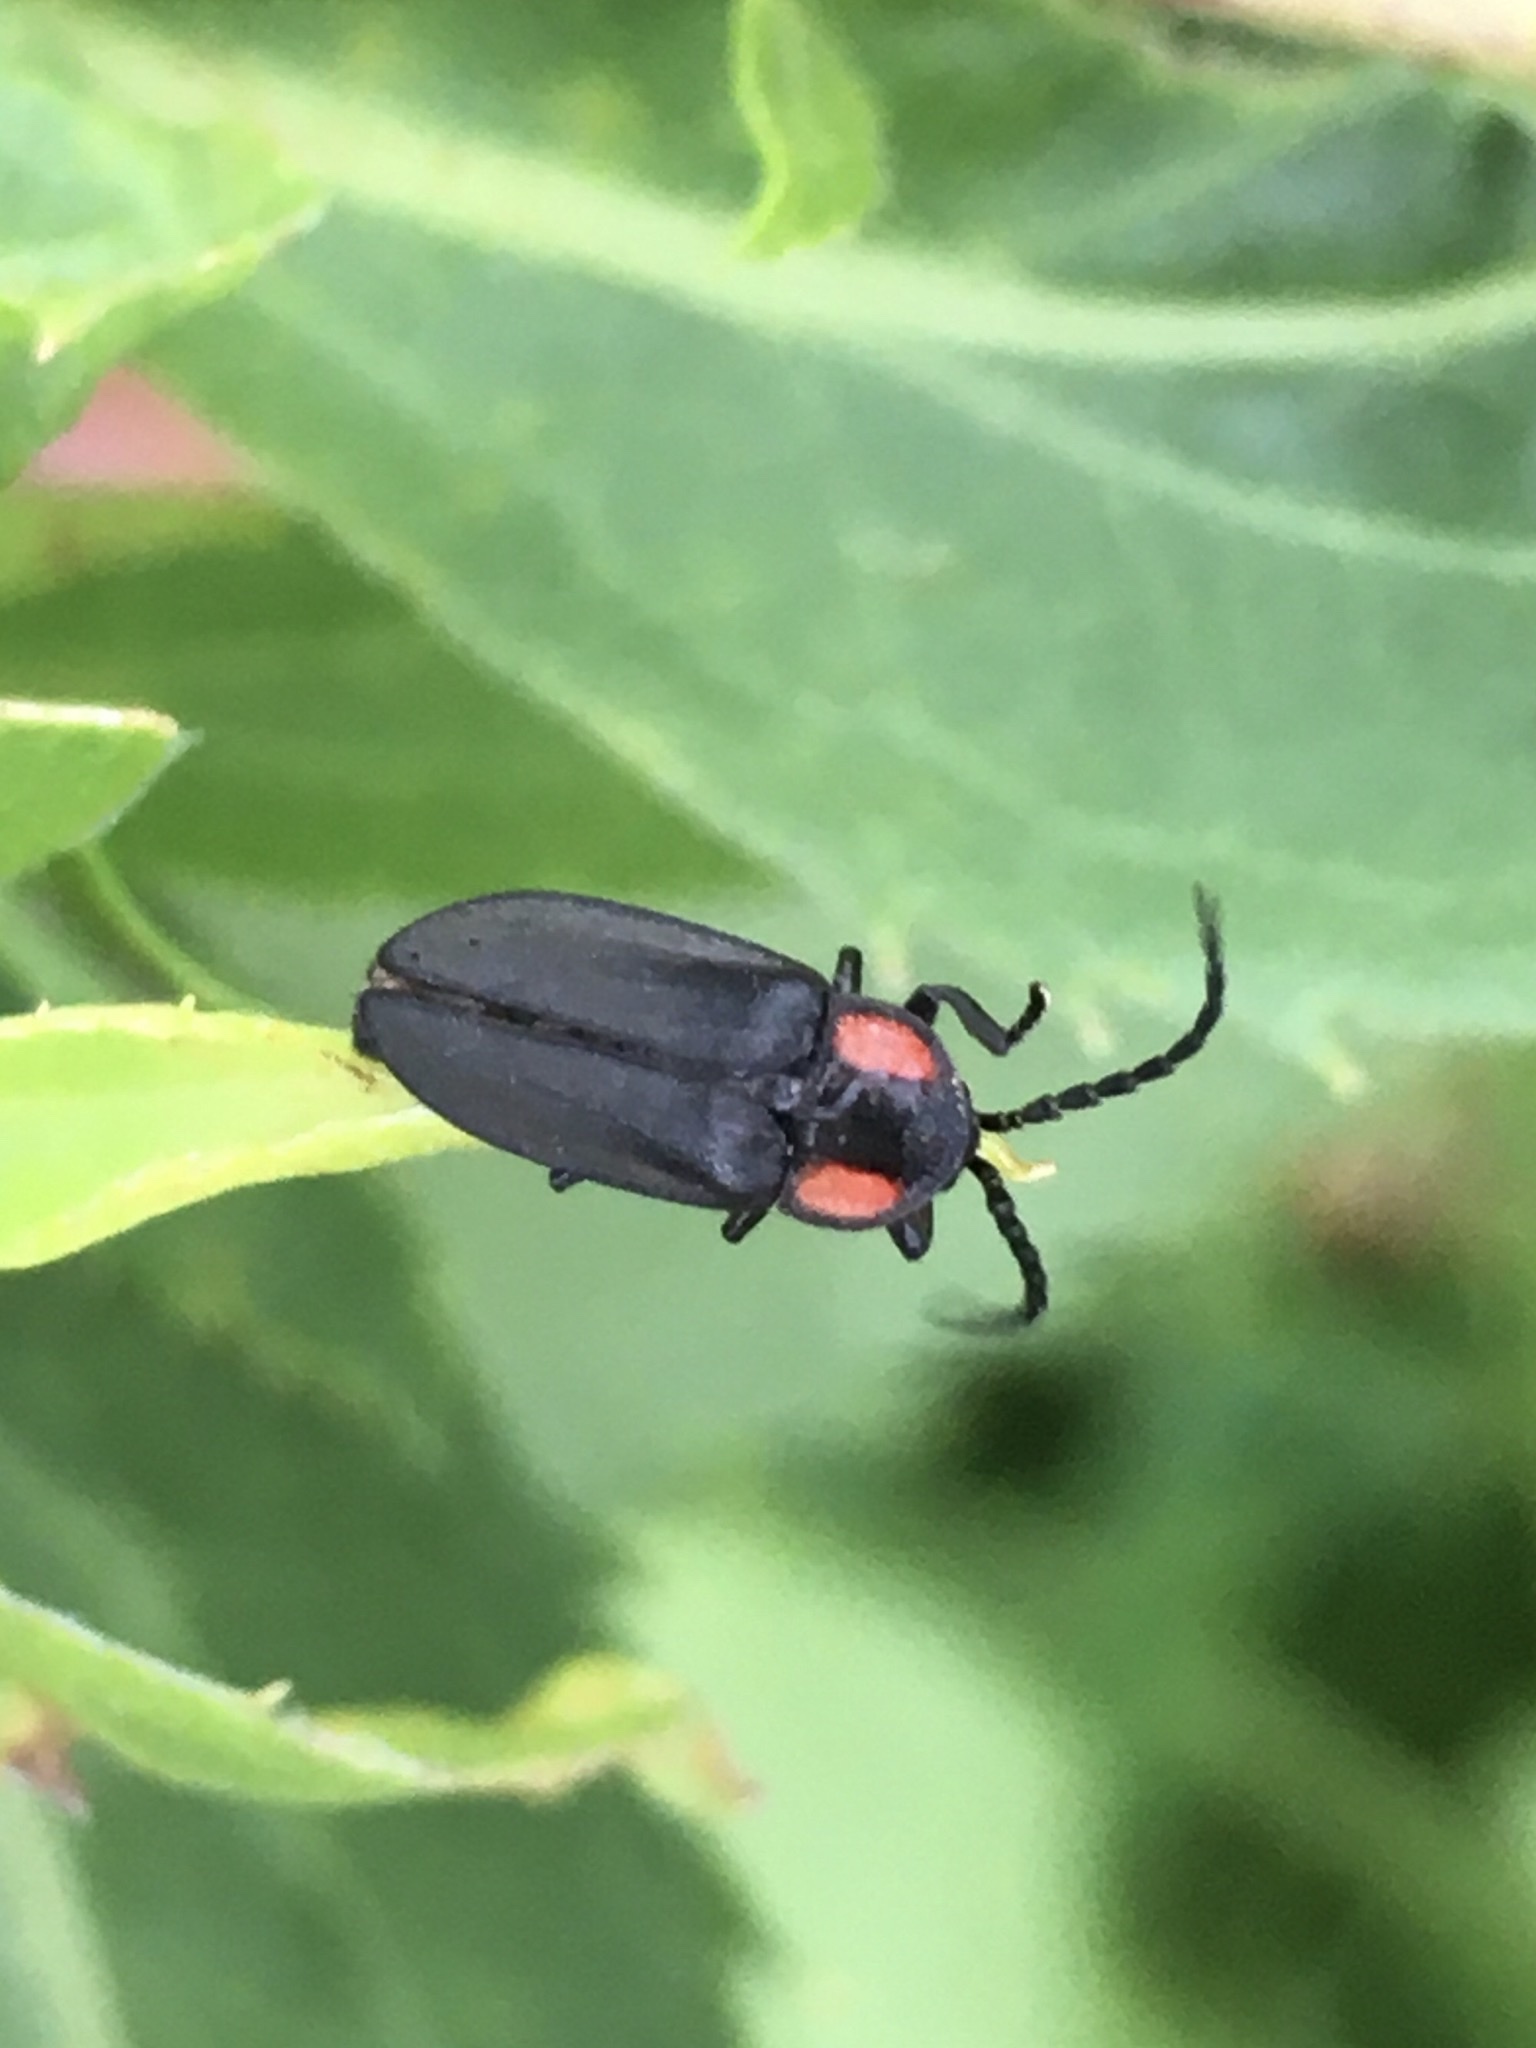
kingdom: Animalia
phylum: Arthropoda
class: Insecta
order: Coleoptera
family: Lampyridae
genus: Pyropyga
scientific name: Pyropyga nigricans
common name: Dark firefly
